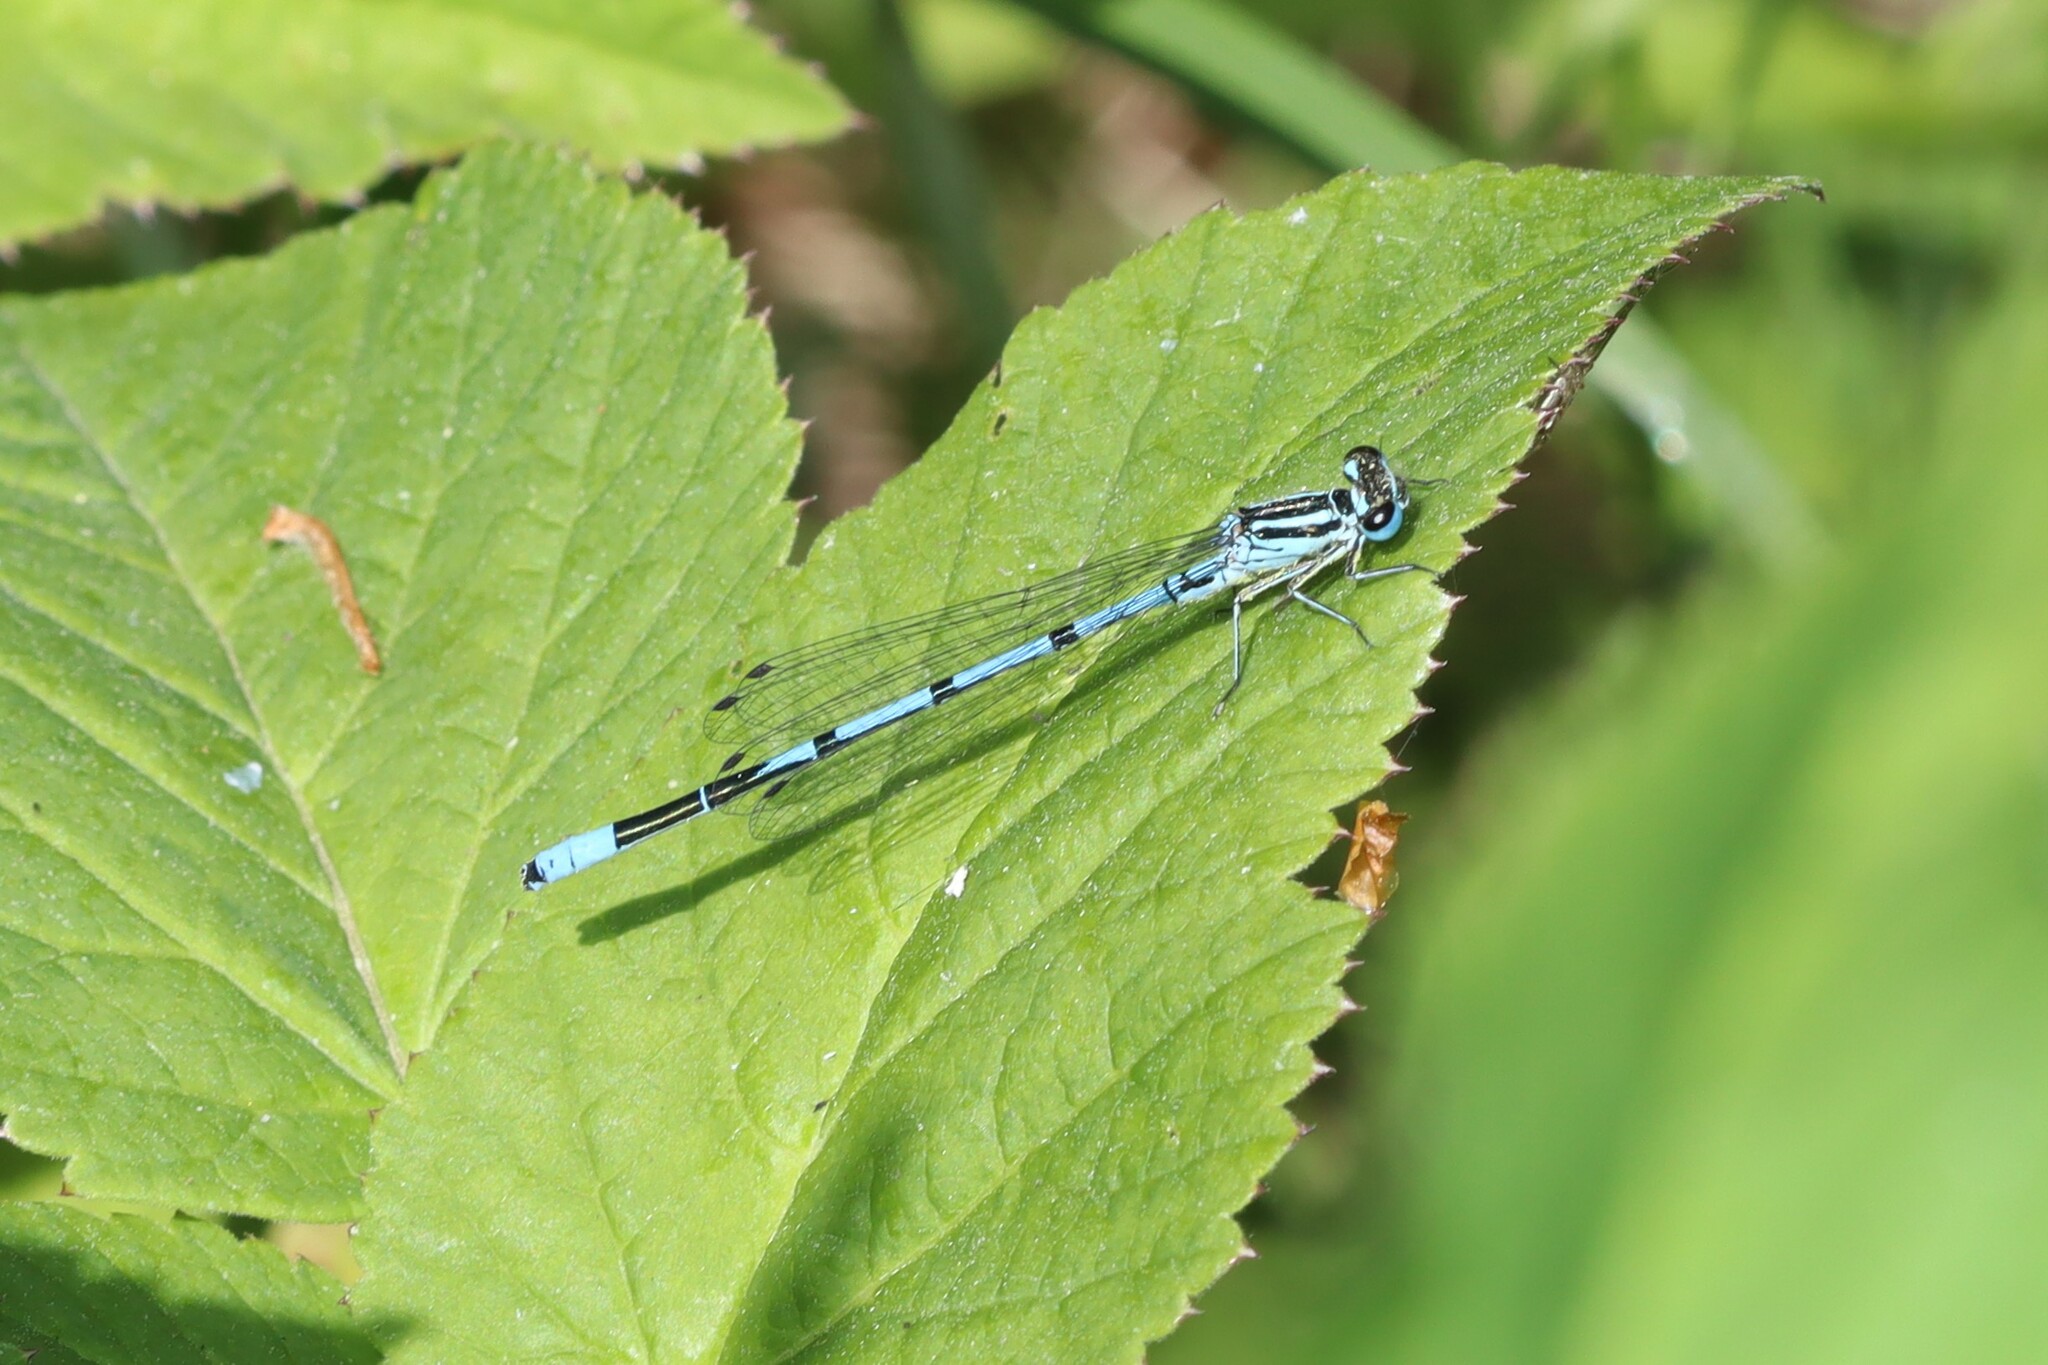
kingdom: Animalia
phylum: Arthropoda
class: Insecta
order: Odonata
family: Coenagrionidae
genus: Coenagrion
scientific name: Coenagrion puella
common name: Azure damselfly
